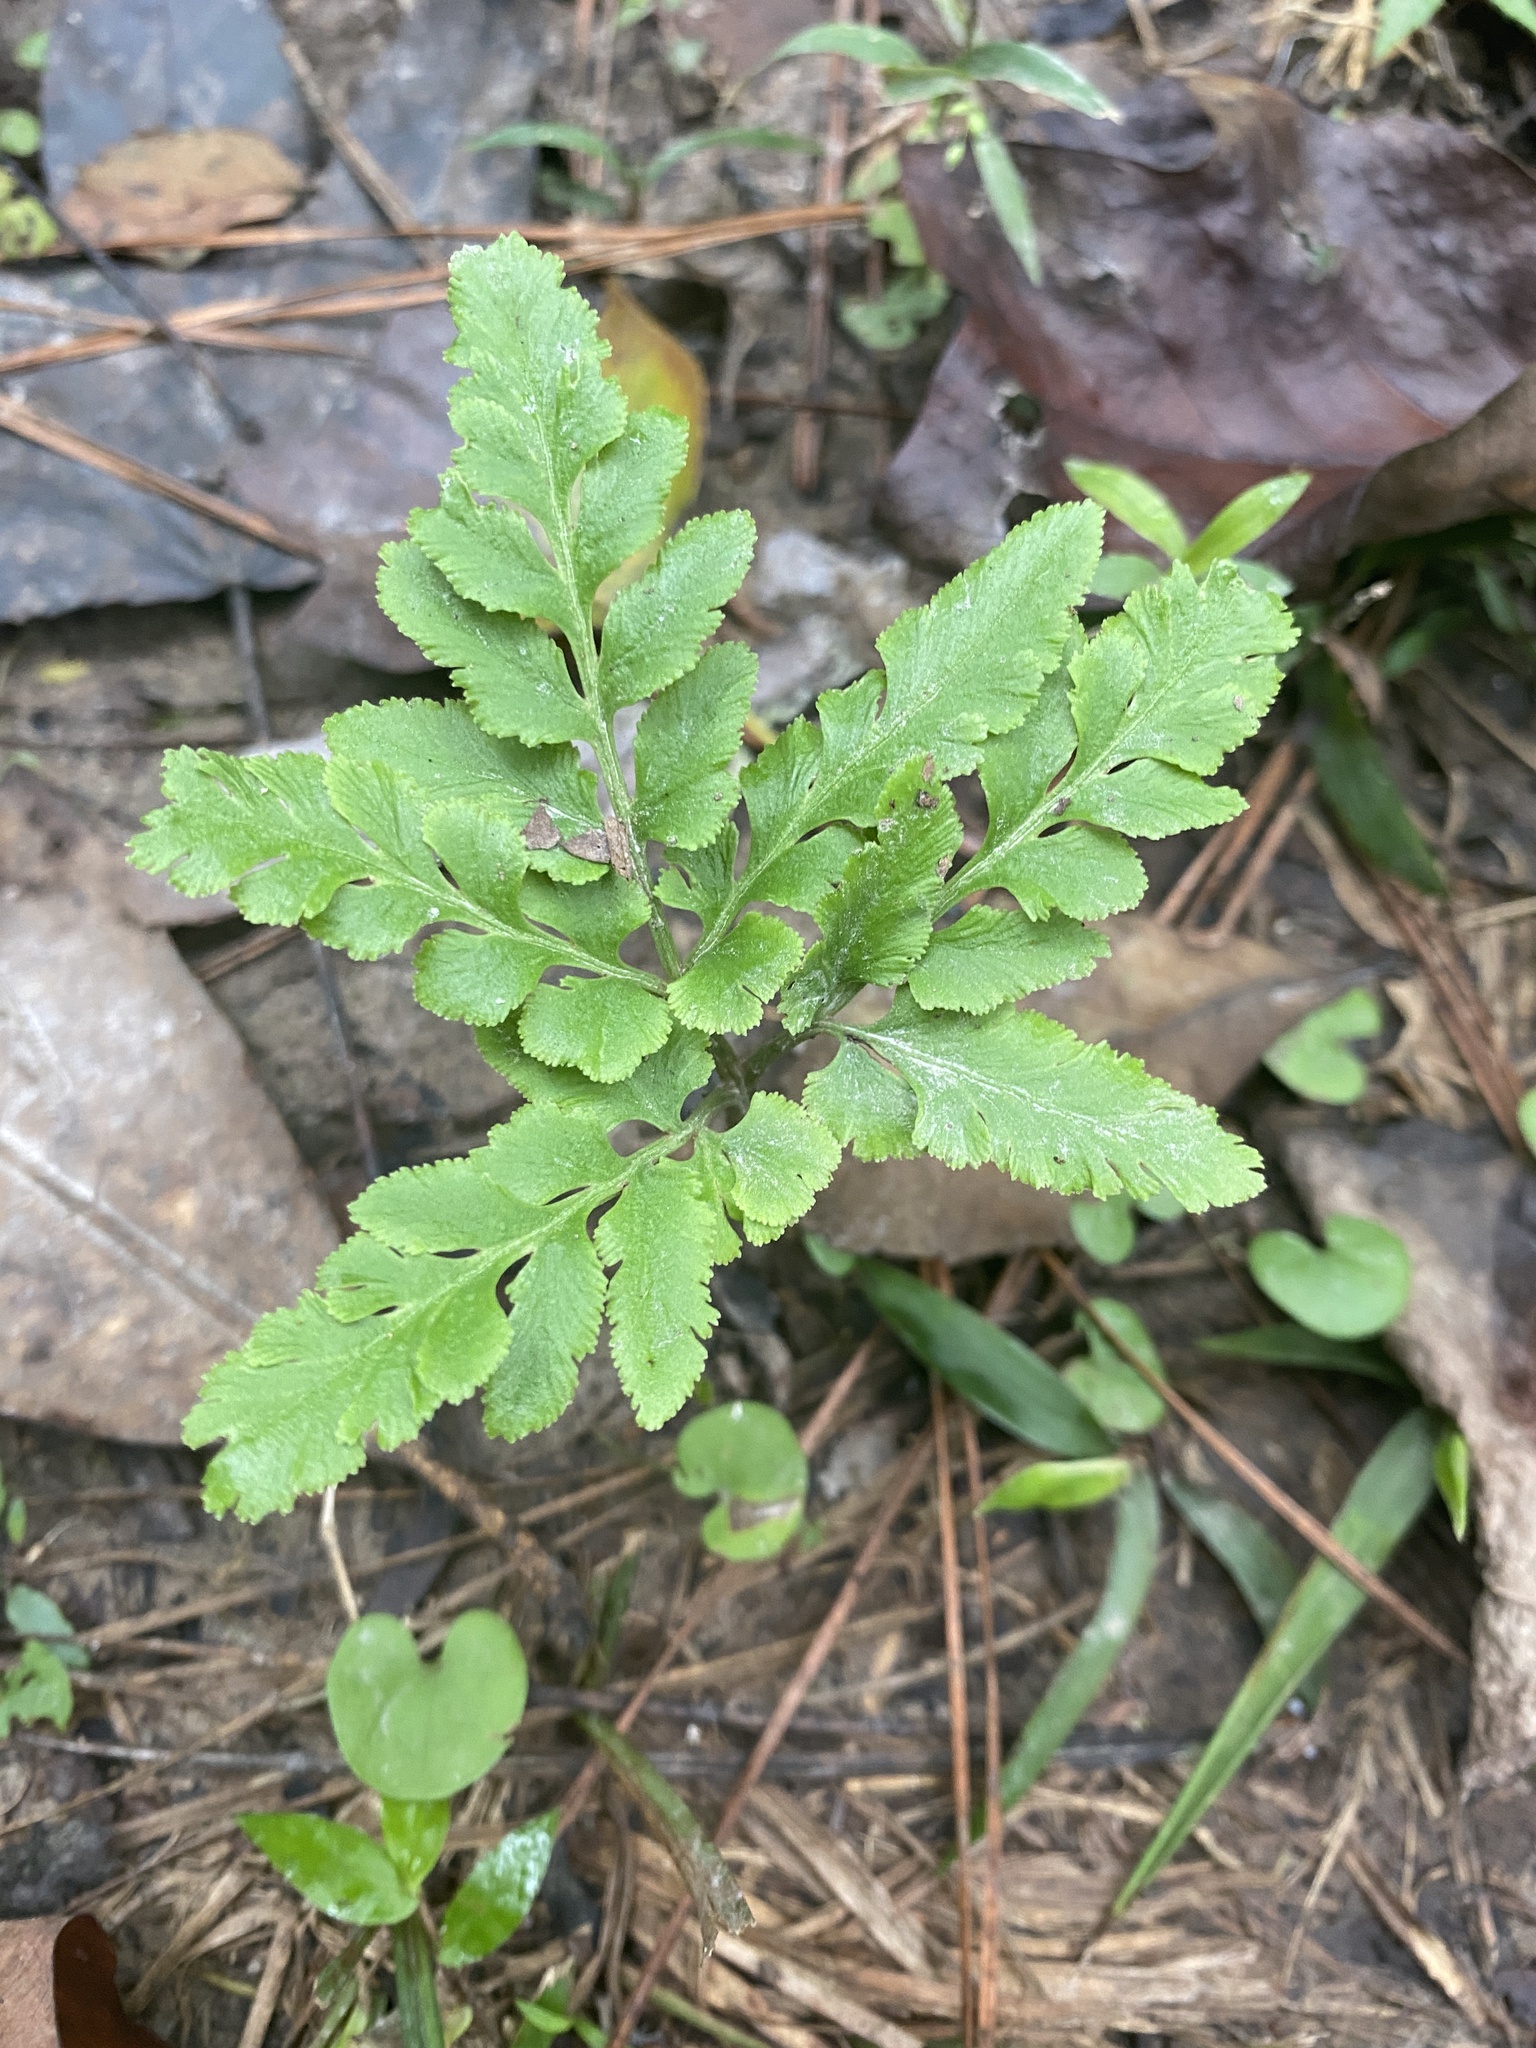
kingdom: Plantae
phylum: Tracheophyta
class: Polypodiopsida
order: Ophioglossales
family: Ophioglossaceae
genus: Sceptridium
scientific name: Sceptridium biternatum
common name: Sparse-lobed grapefern
